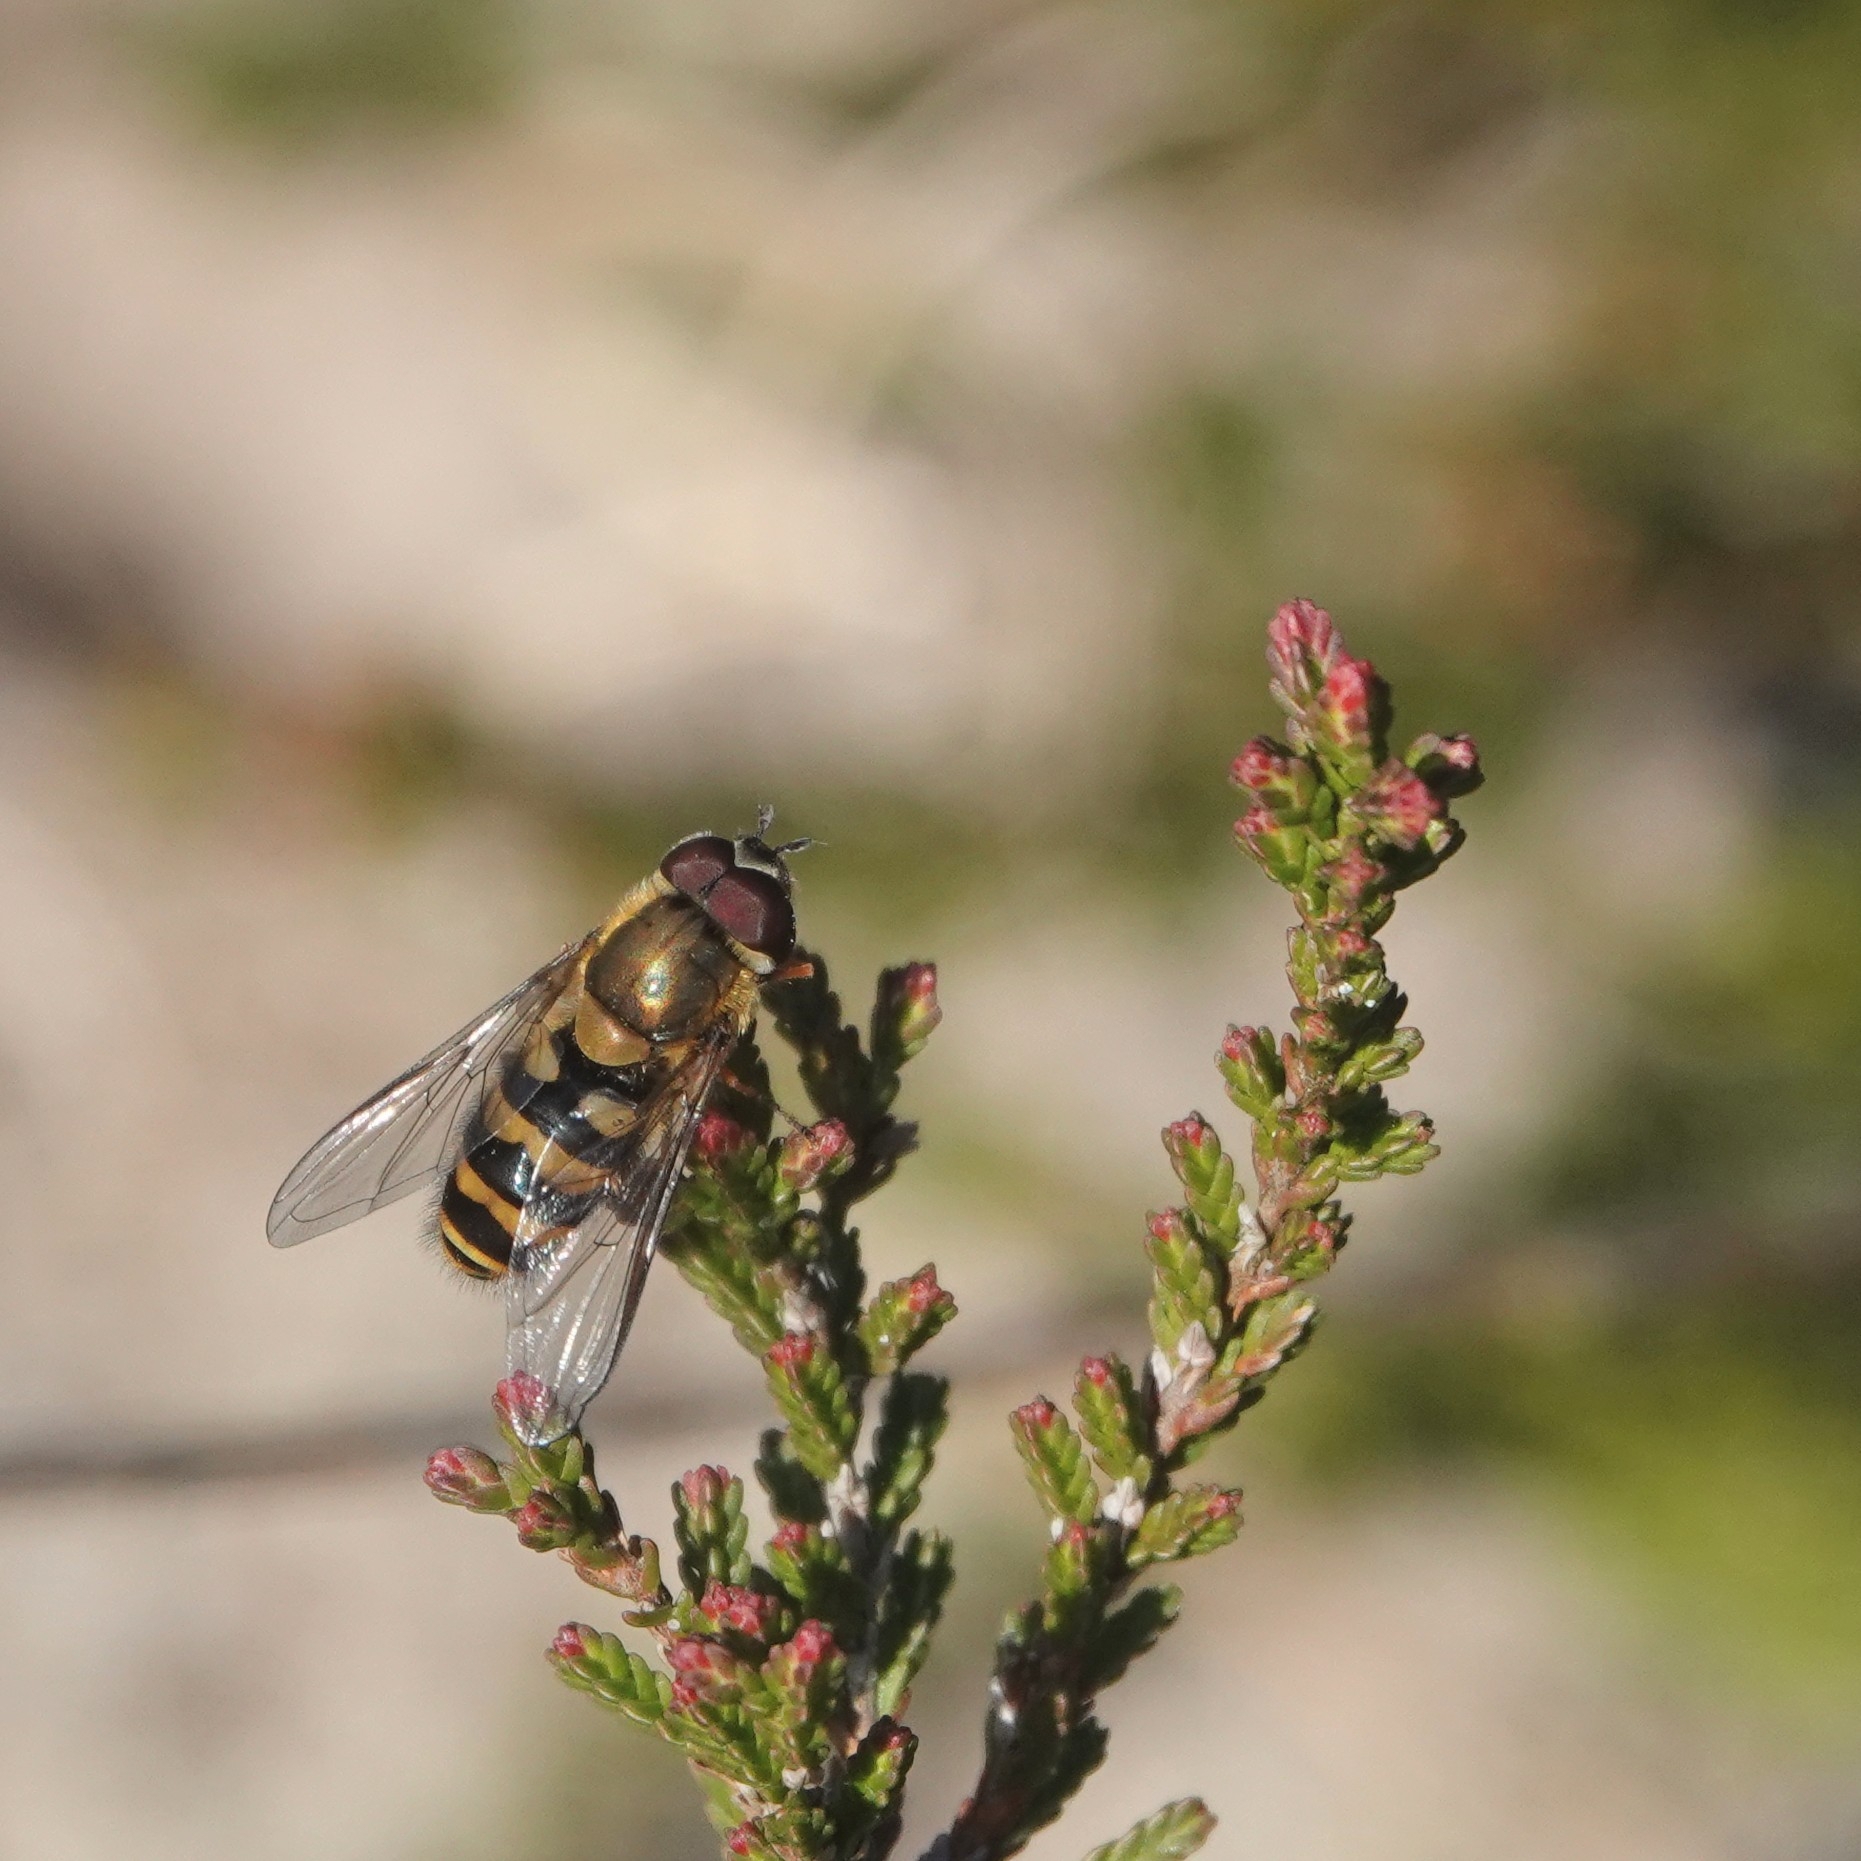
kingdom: Animalia
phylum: Arthropoda
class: Insecta
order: Diptera
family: Syrphidae
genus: Syrphus
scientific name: Syrphus torvus
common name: Hairy-eyed flower fly
